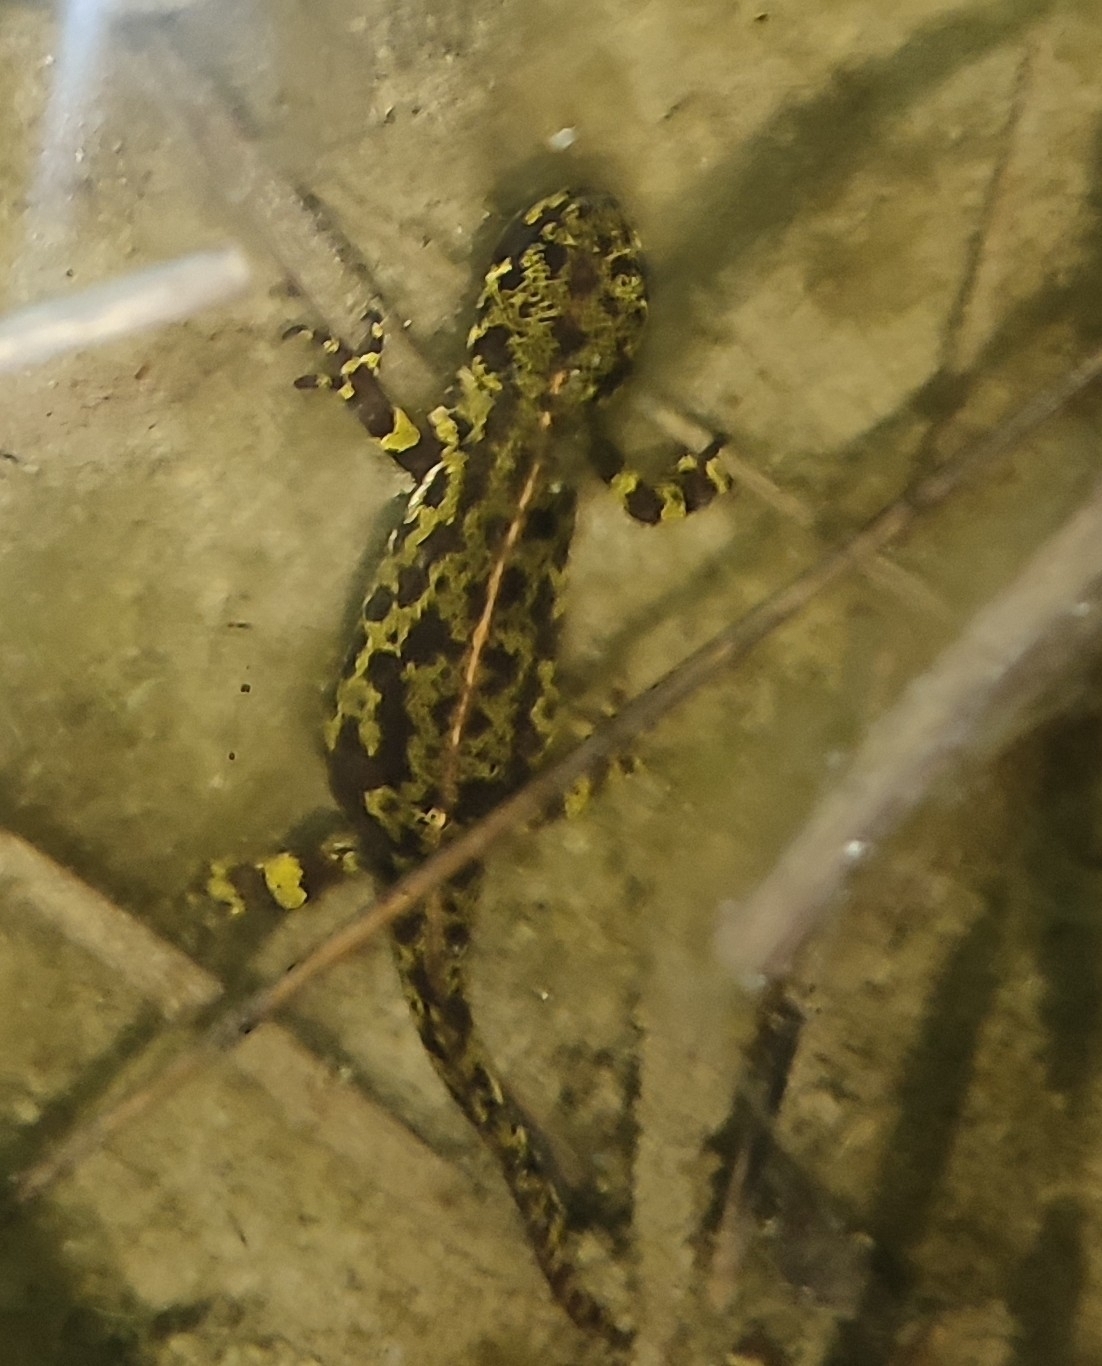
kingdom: Animalia
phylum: Chordata
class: Amphibia
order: Caudata
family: Salamandridae
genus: Triturus
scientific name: Triturus marmoratus
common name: Marbled newt
